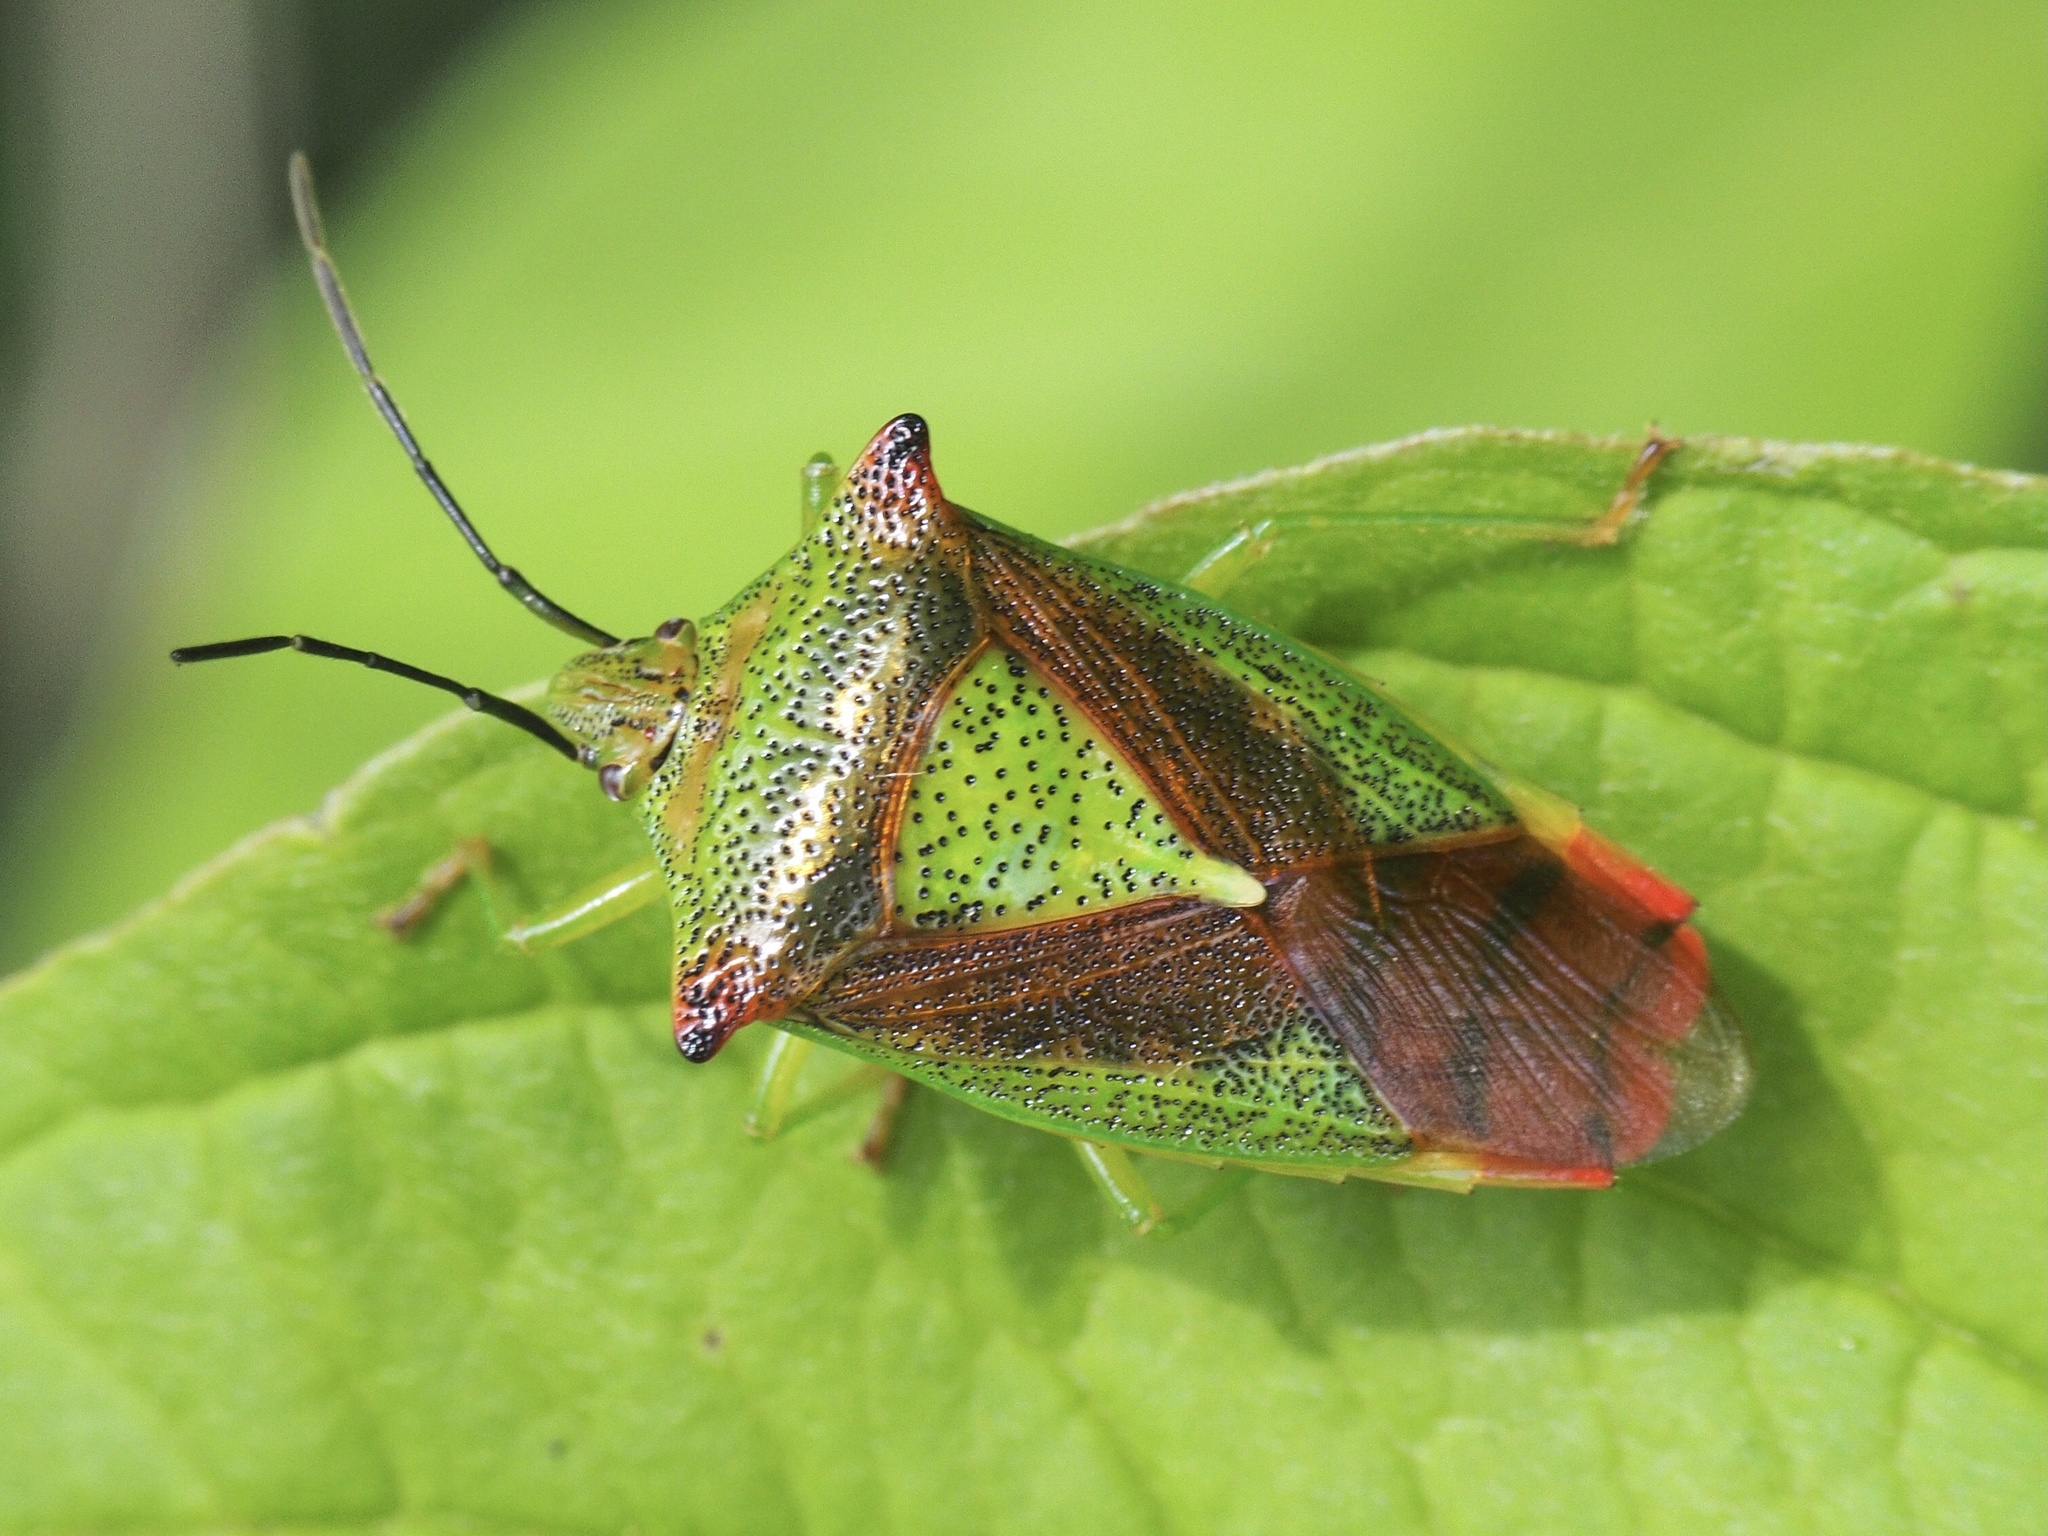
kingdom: Animalia
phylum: Arthropoda
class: Insecta
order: Hemiptera
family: Acanthosomatidae
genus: Acanthosoma
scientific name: Acanthosoma haemorrhoidale
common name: Hawthorn shieldbug
